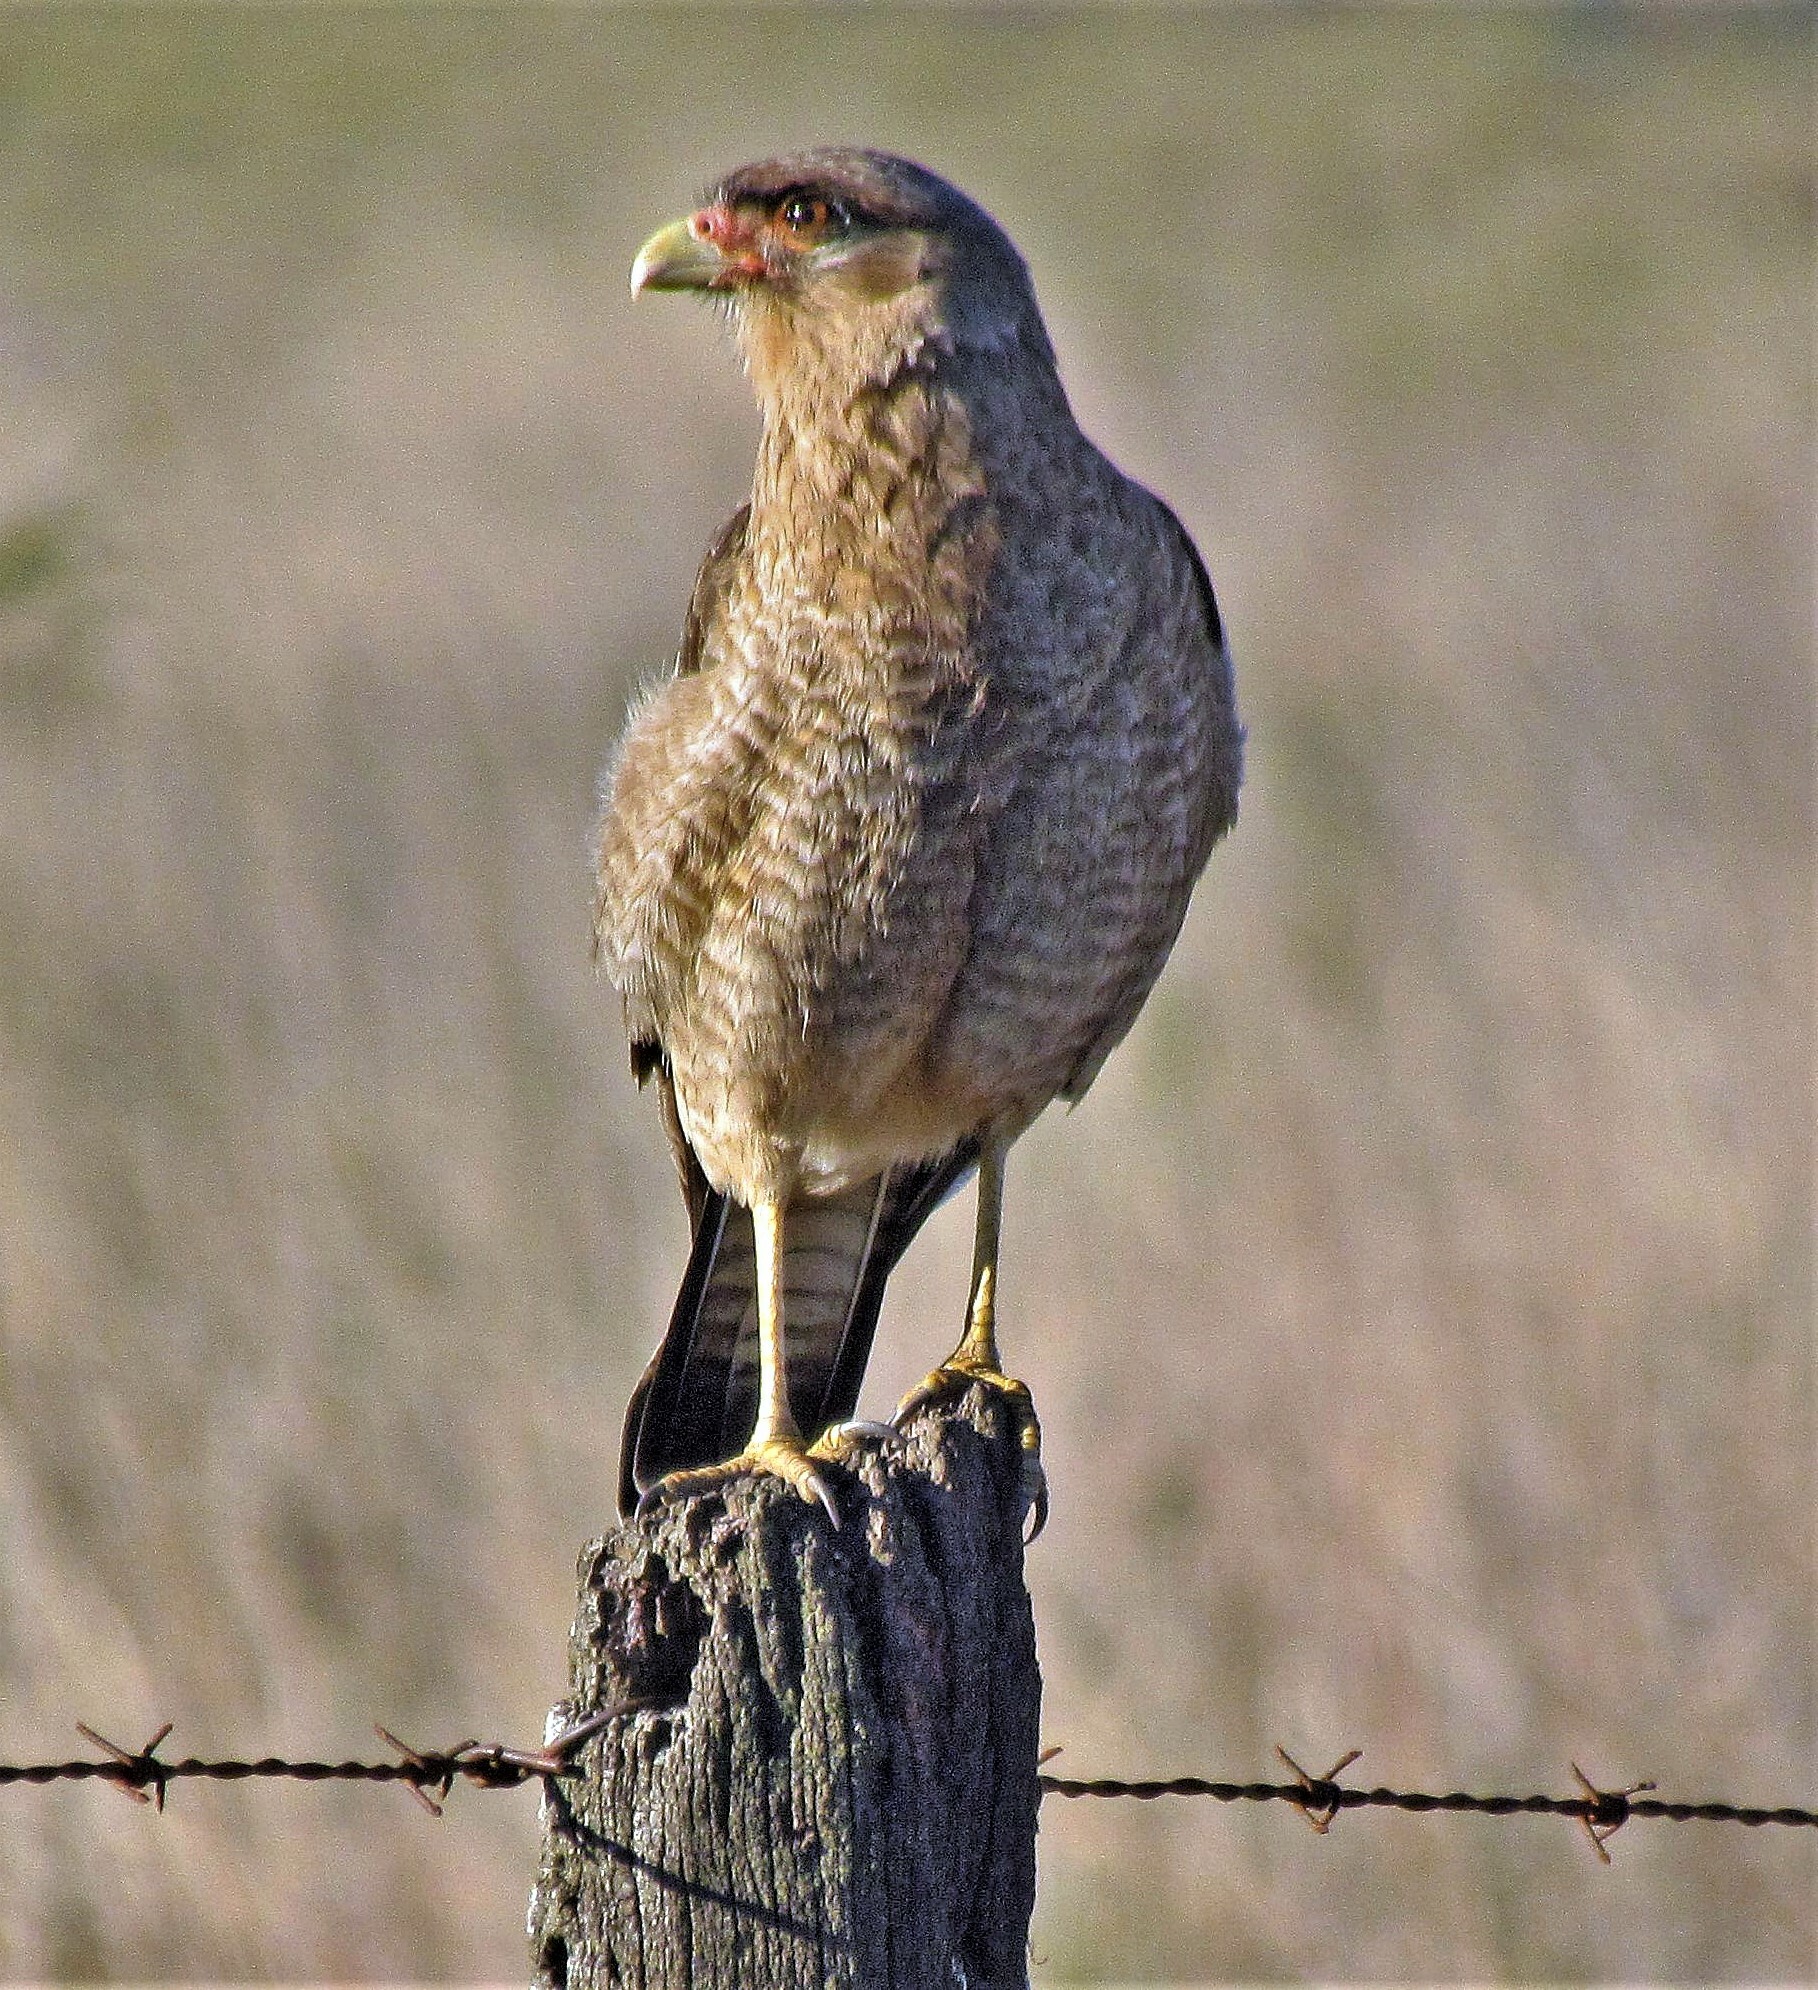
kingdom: Animalia
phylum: Chordata
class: Aves
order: Falconiformes
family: Falconidae
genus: Daptrius
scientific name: Daptrius
